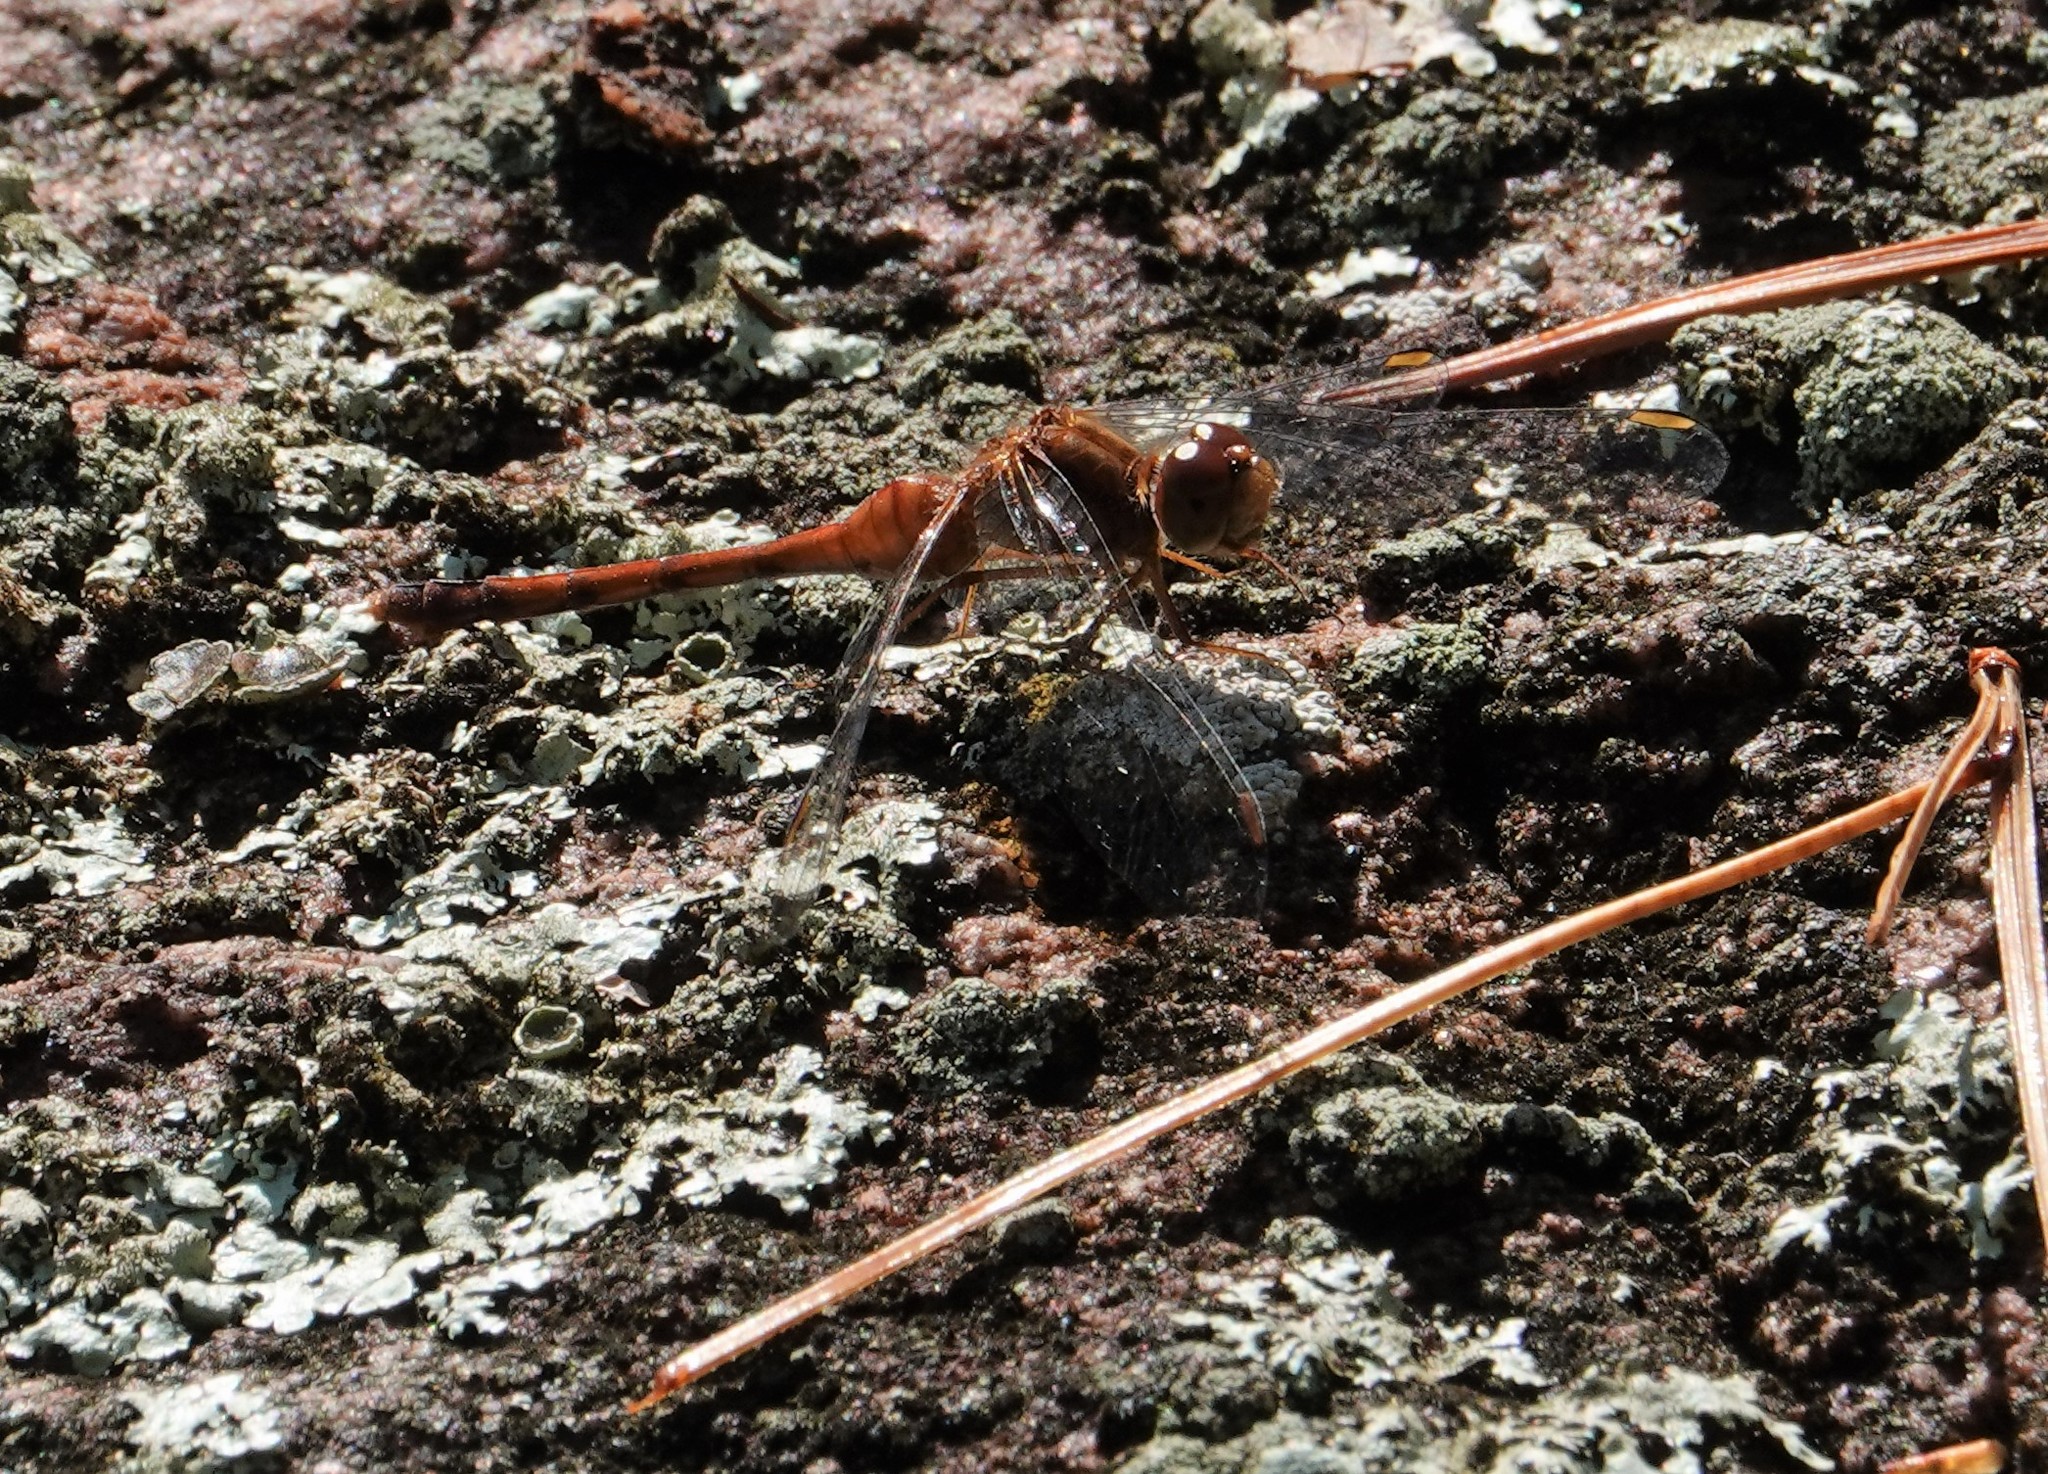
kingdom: Animalia
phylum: Arthropoda
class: Insecta
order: Odonata
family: Libellulidae
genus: Sympetrum
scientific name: Sympetrum vicinum
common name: Autumn meadowhawk
